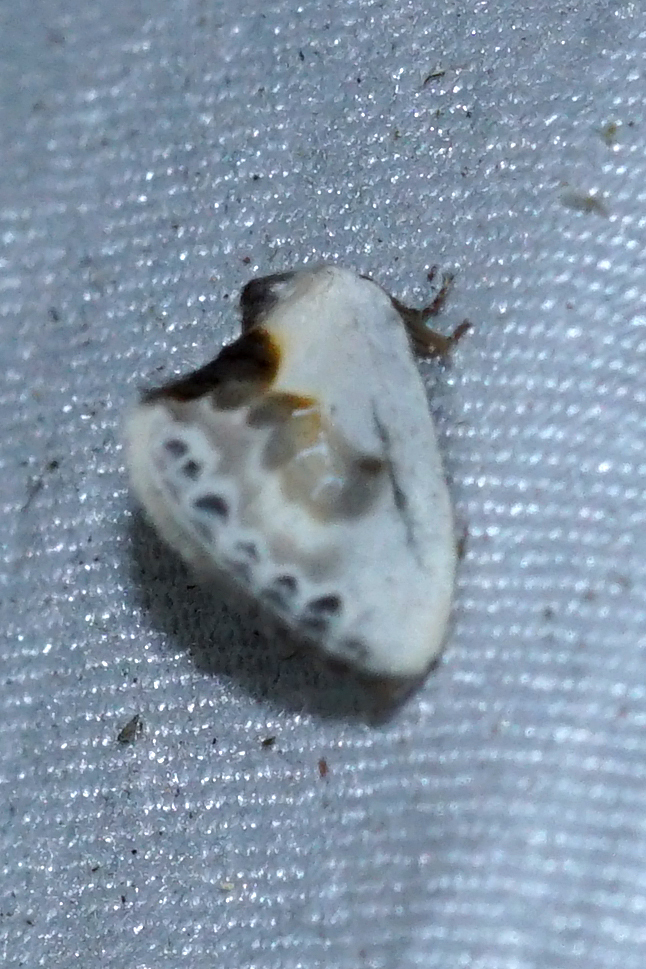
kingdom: Animalia
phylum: Arthropoda
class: Insecta
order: Lepidoptera
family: Drepanidae
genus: Cilix
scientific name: Cilix glaucata
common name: Chinese character
